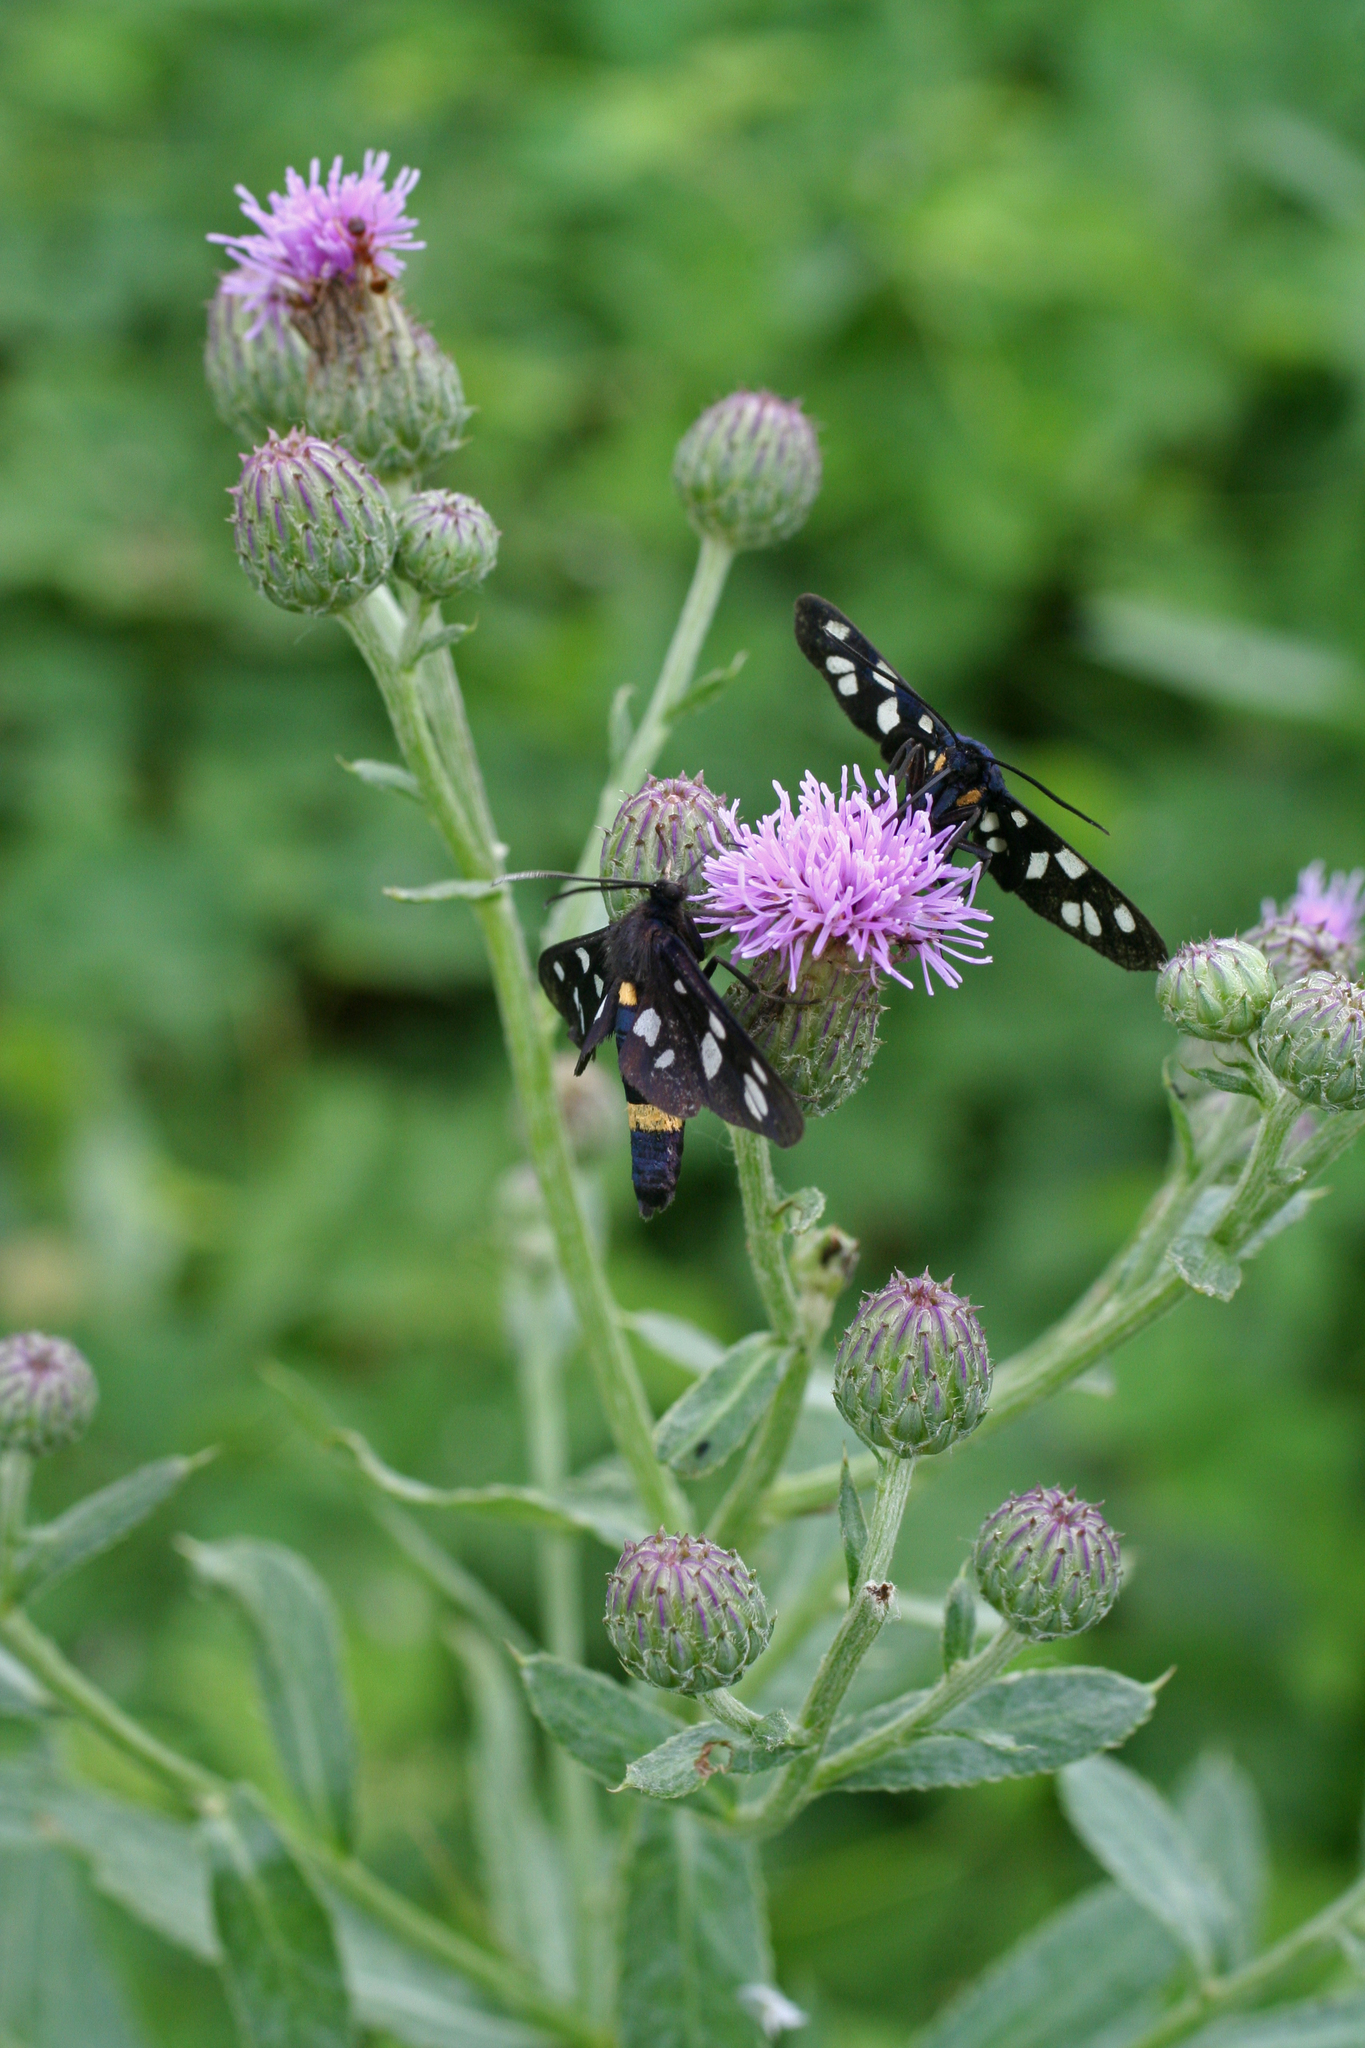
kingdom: Animalia
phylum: Arthropoda
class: Insecta
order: Lepidoptera
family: Erebidae
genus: Amata
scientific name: Amata nigricornis
